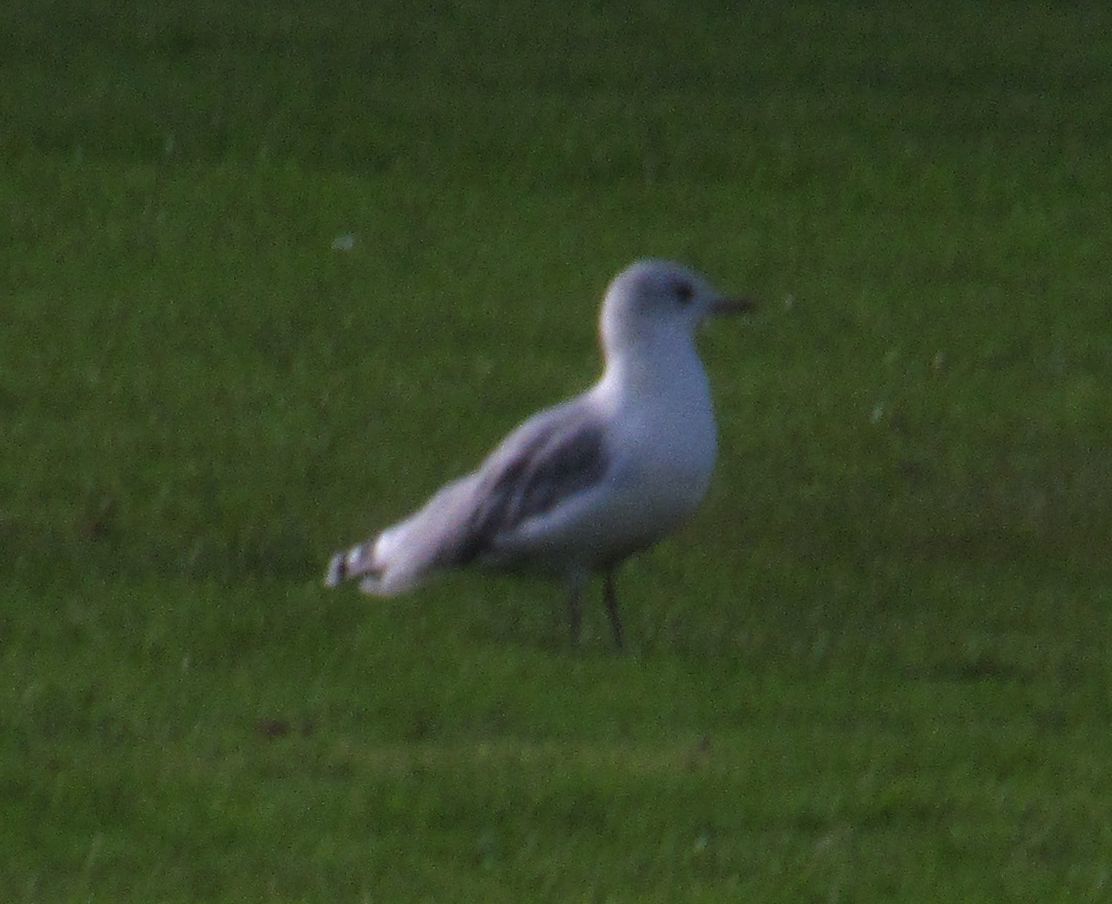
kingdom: Animalia
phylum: Chordata
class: Aves
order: Charadriiformes
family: Laridae
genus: Larus
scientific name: Larus canus
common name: Mew gull
